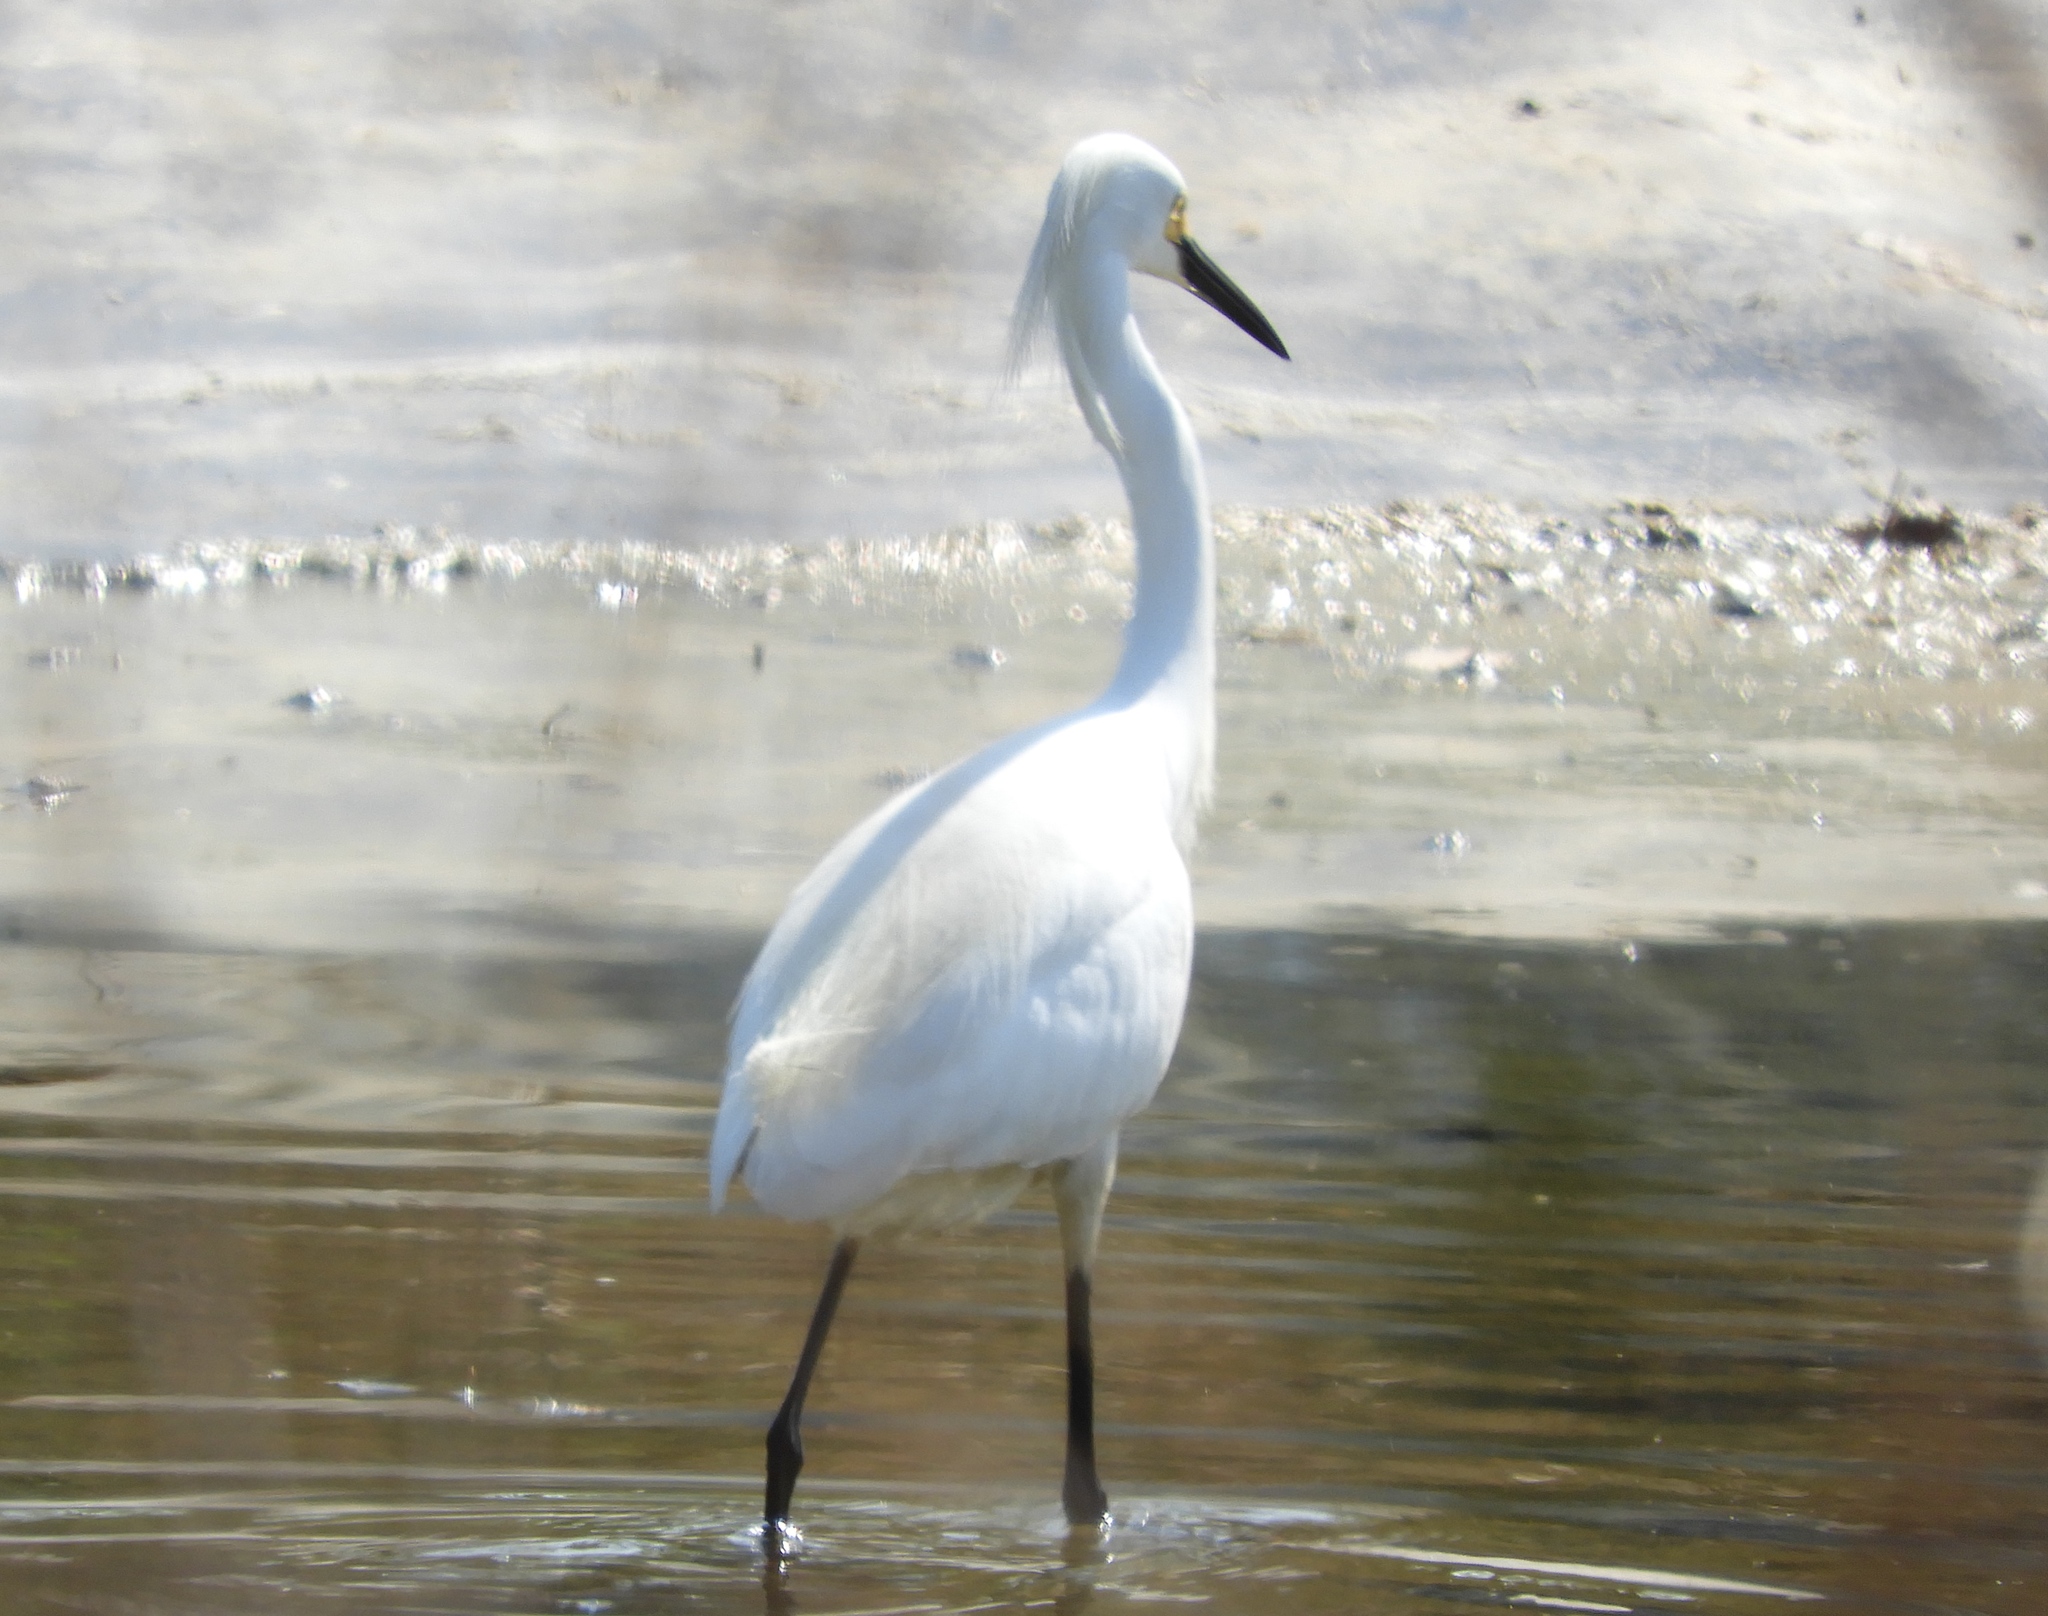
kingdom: Animalia
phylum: Chordata
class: Aves
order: Pelecaniformes
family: Ardeidae
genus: Egretta
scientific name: Egretta thula
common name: Snowy egret
